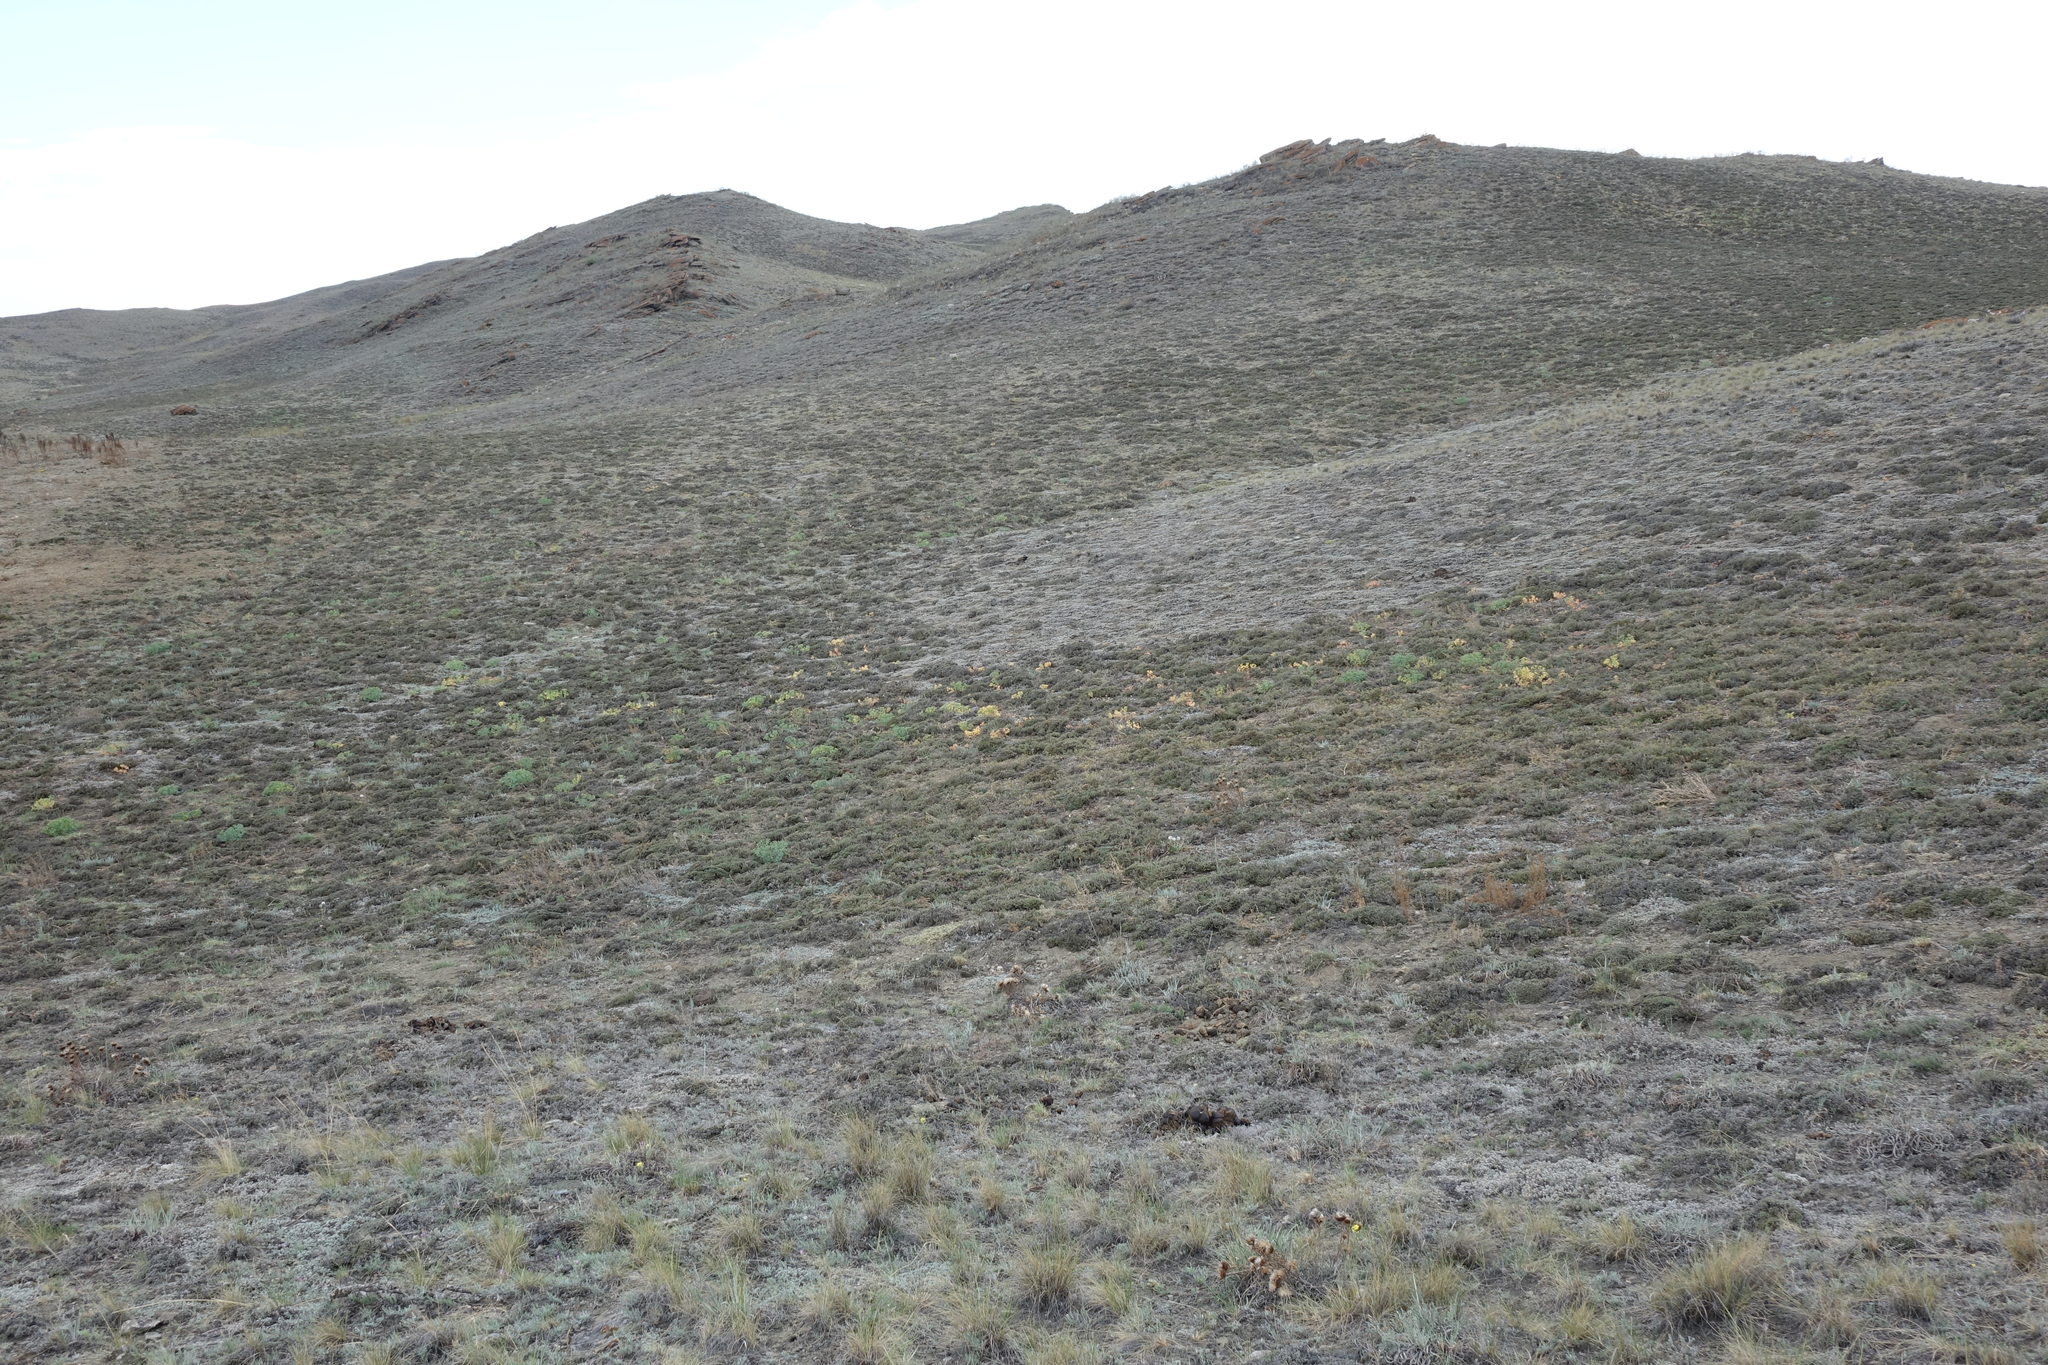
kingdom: Plantae
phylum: Tracheophyta
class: Magnoliopsida
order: Caryophyllales
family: Amaranthaceae
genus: Nanophyton
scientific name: Nanophyton grubovii
